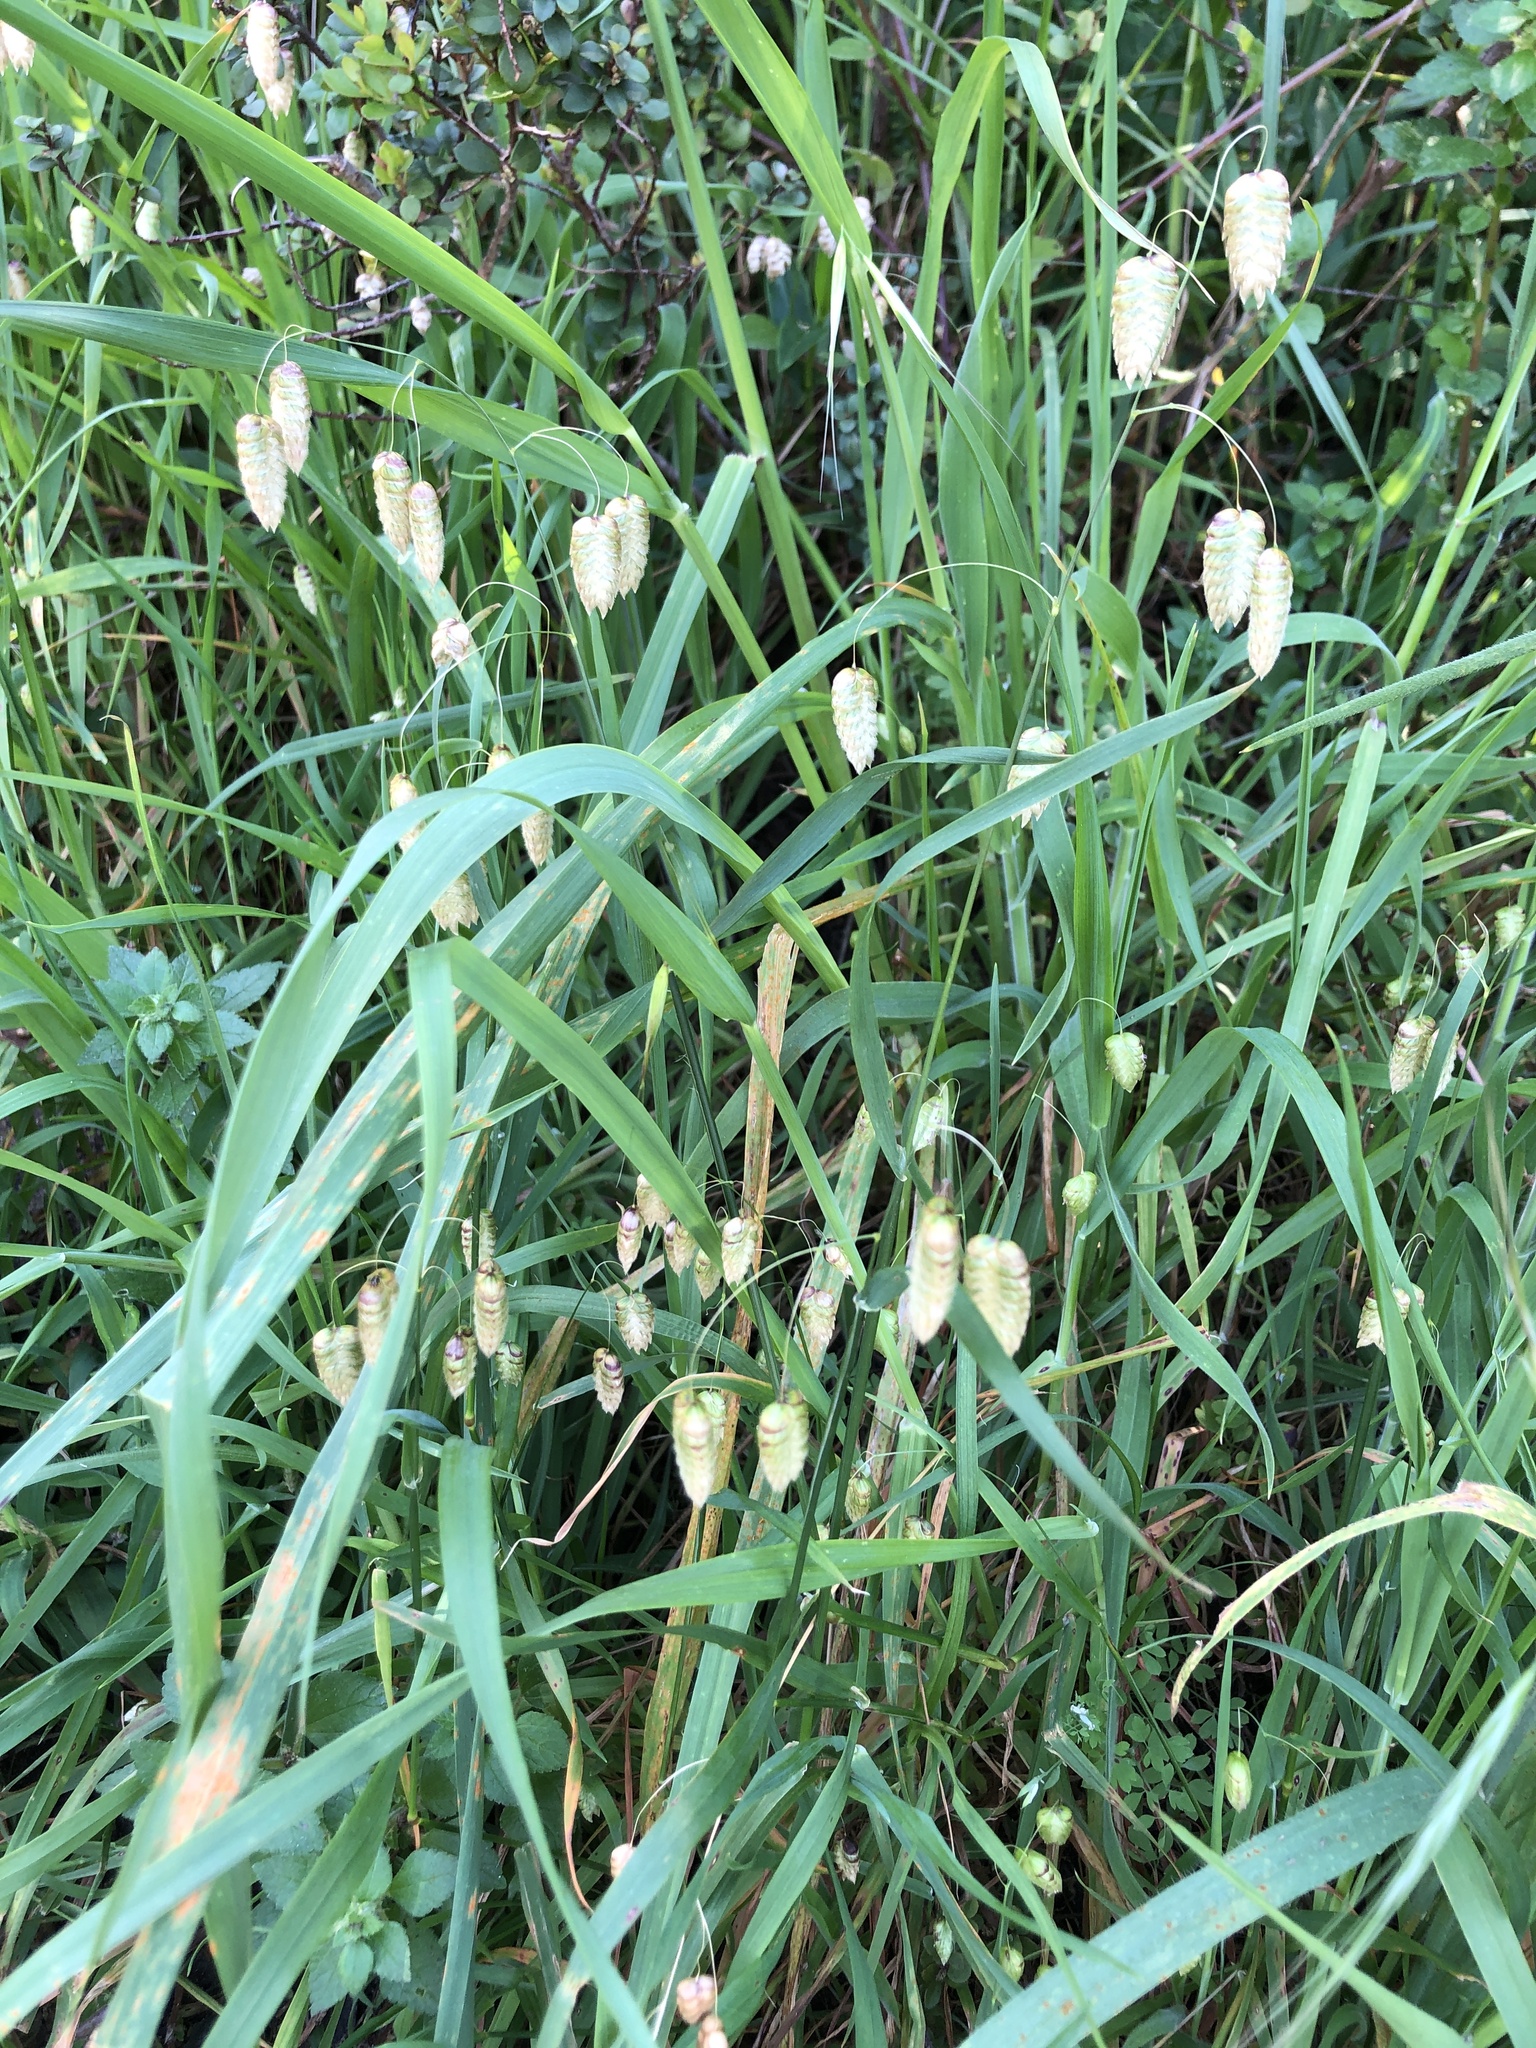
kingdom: Plantae
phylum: Tracheophyta
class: Liliopsida
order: Poales
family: Poaceae
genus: Briza
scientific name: Briza maxima
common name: Big quakinggrass
